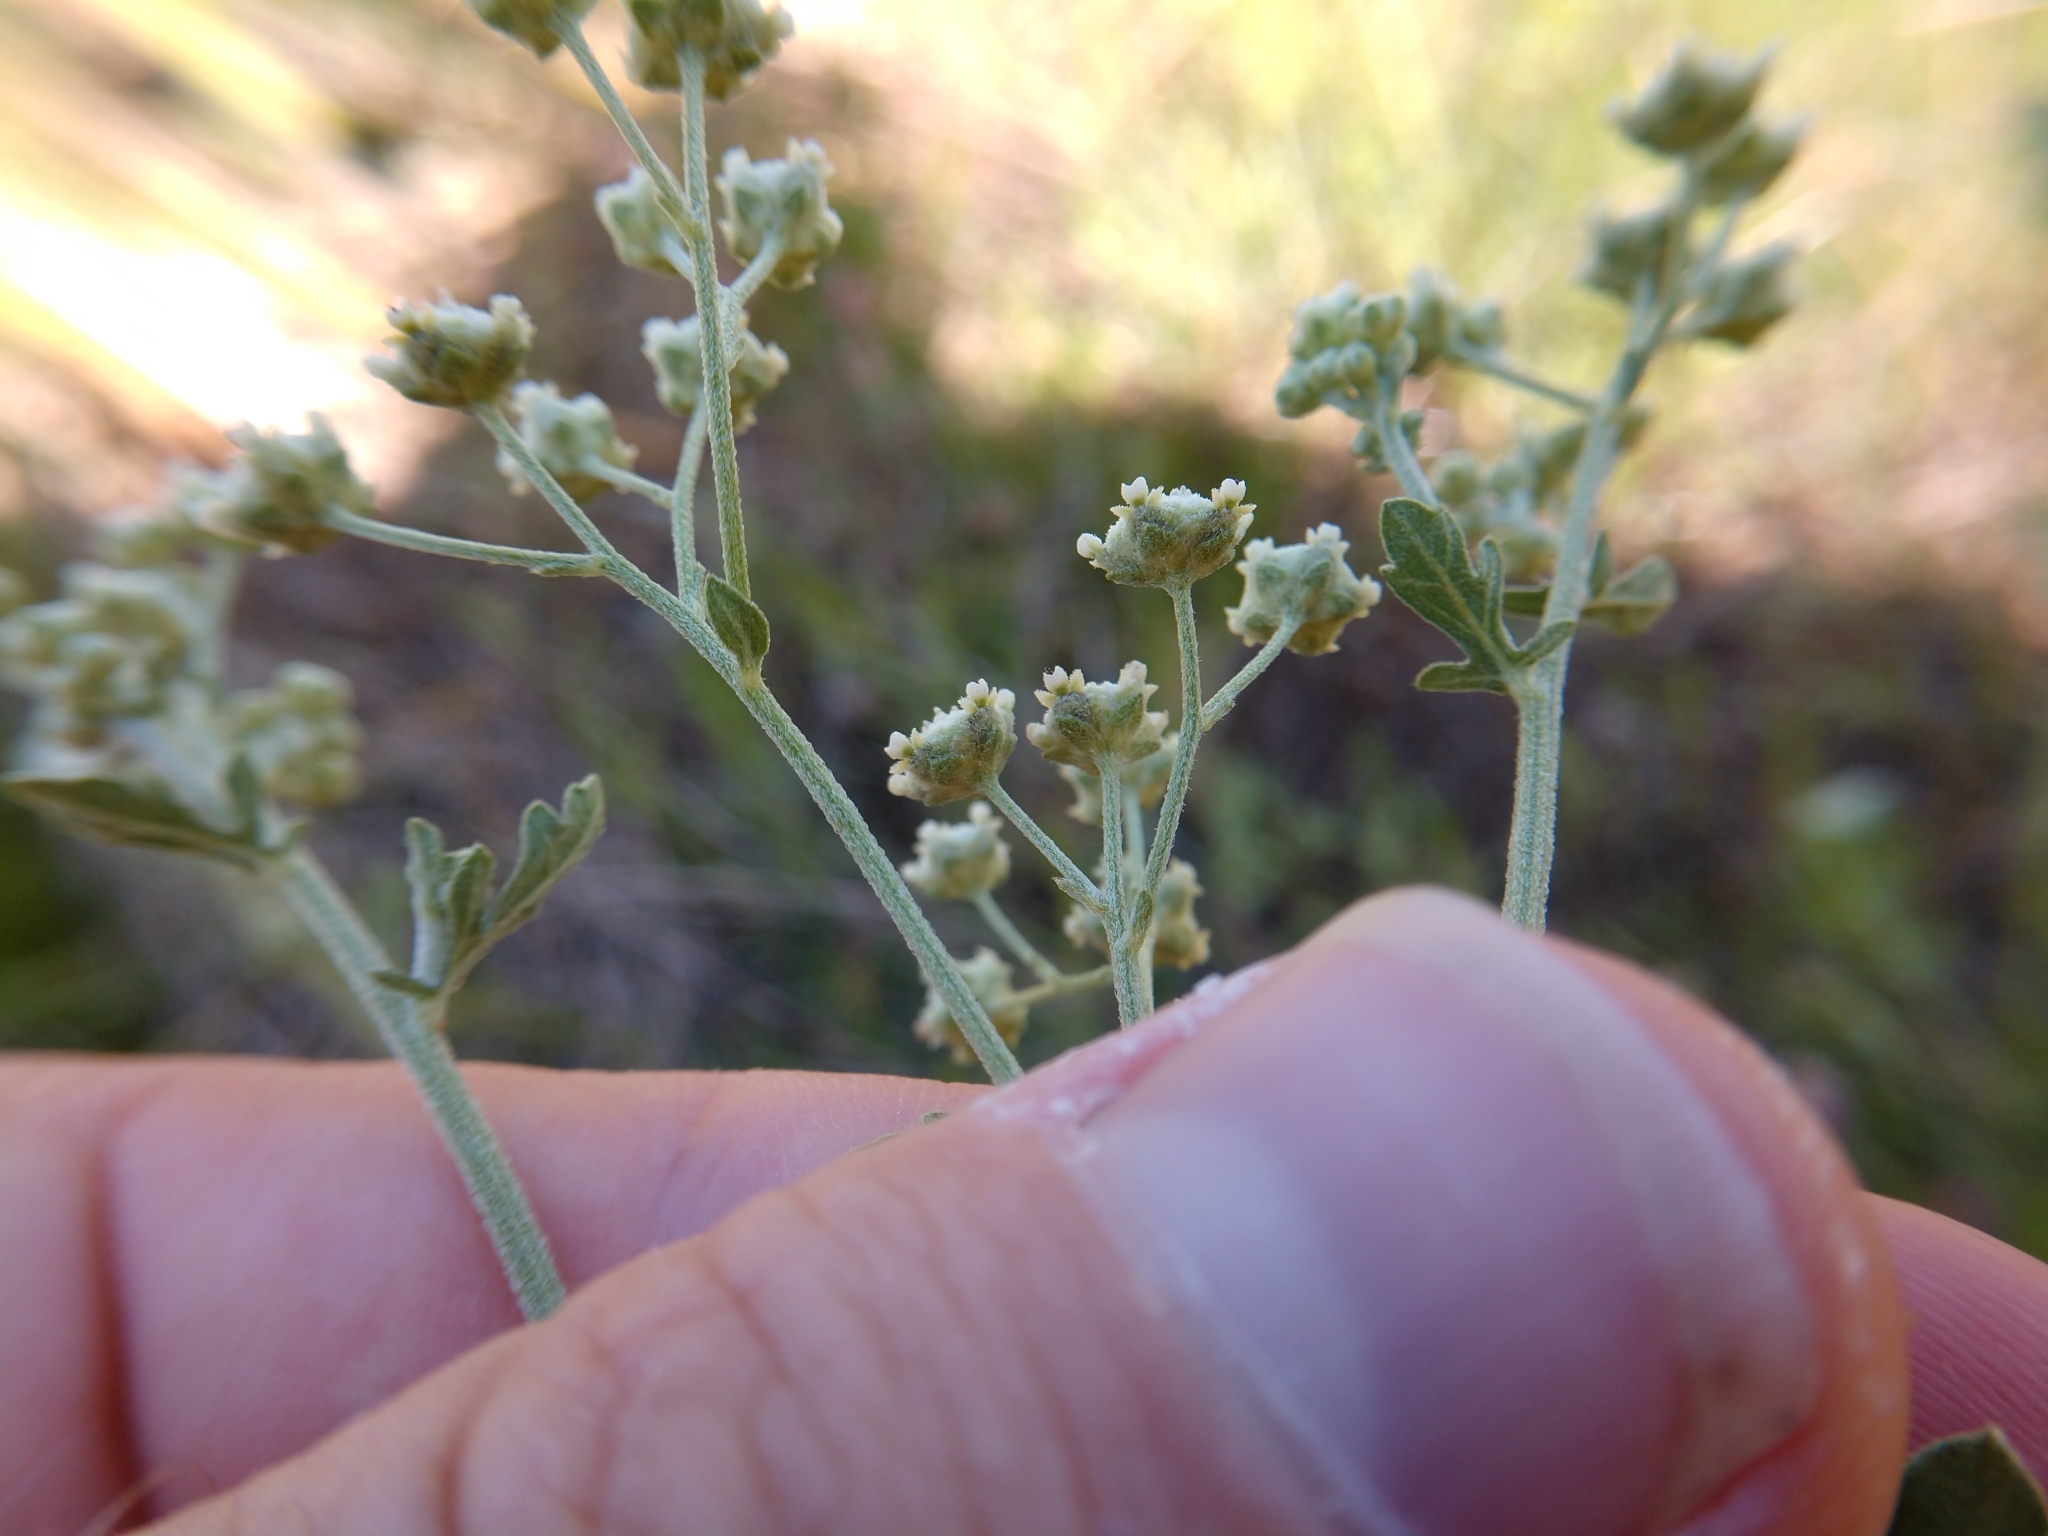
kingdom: Plantae
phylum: Tracheophyta
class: Magnoliopsida
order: Asterales
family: Asteraceae
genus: Parthenium
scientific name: Parthenium confertum
